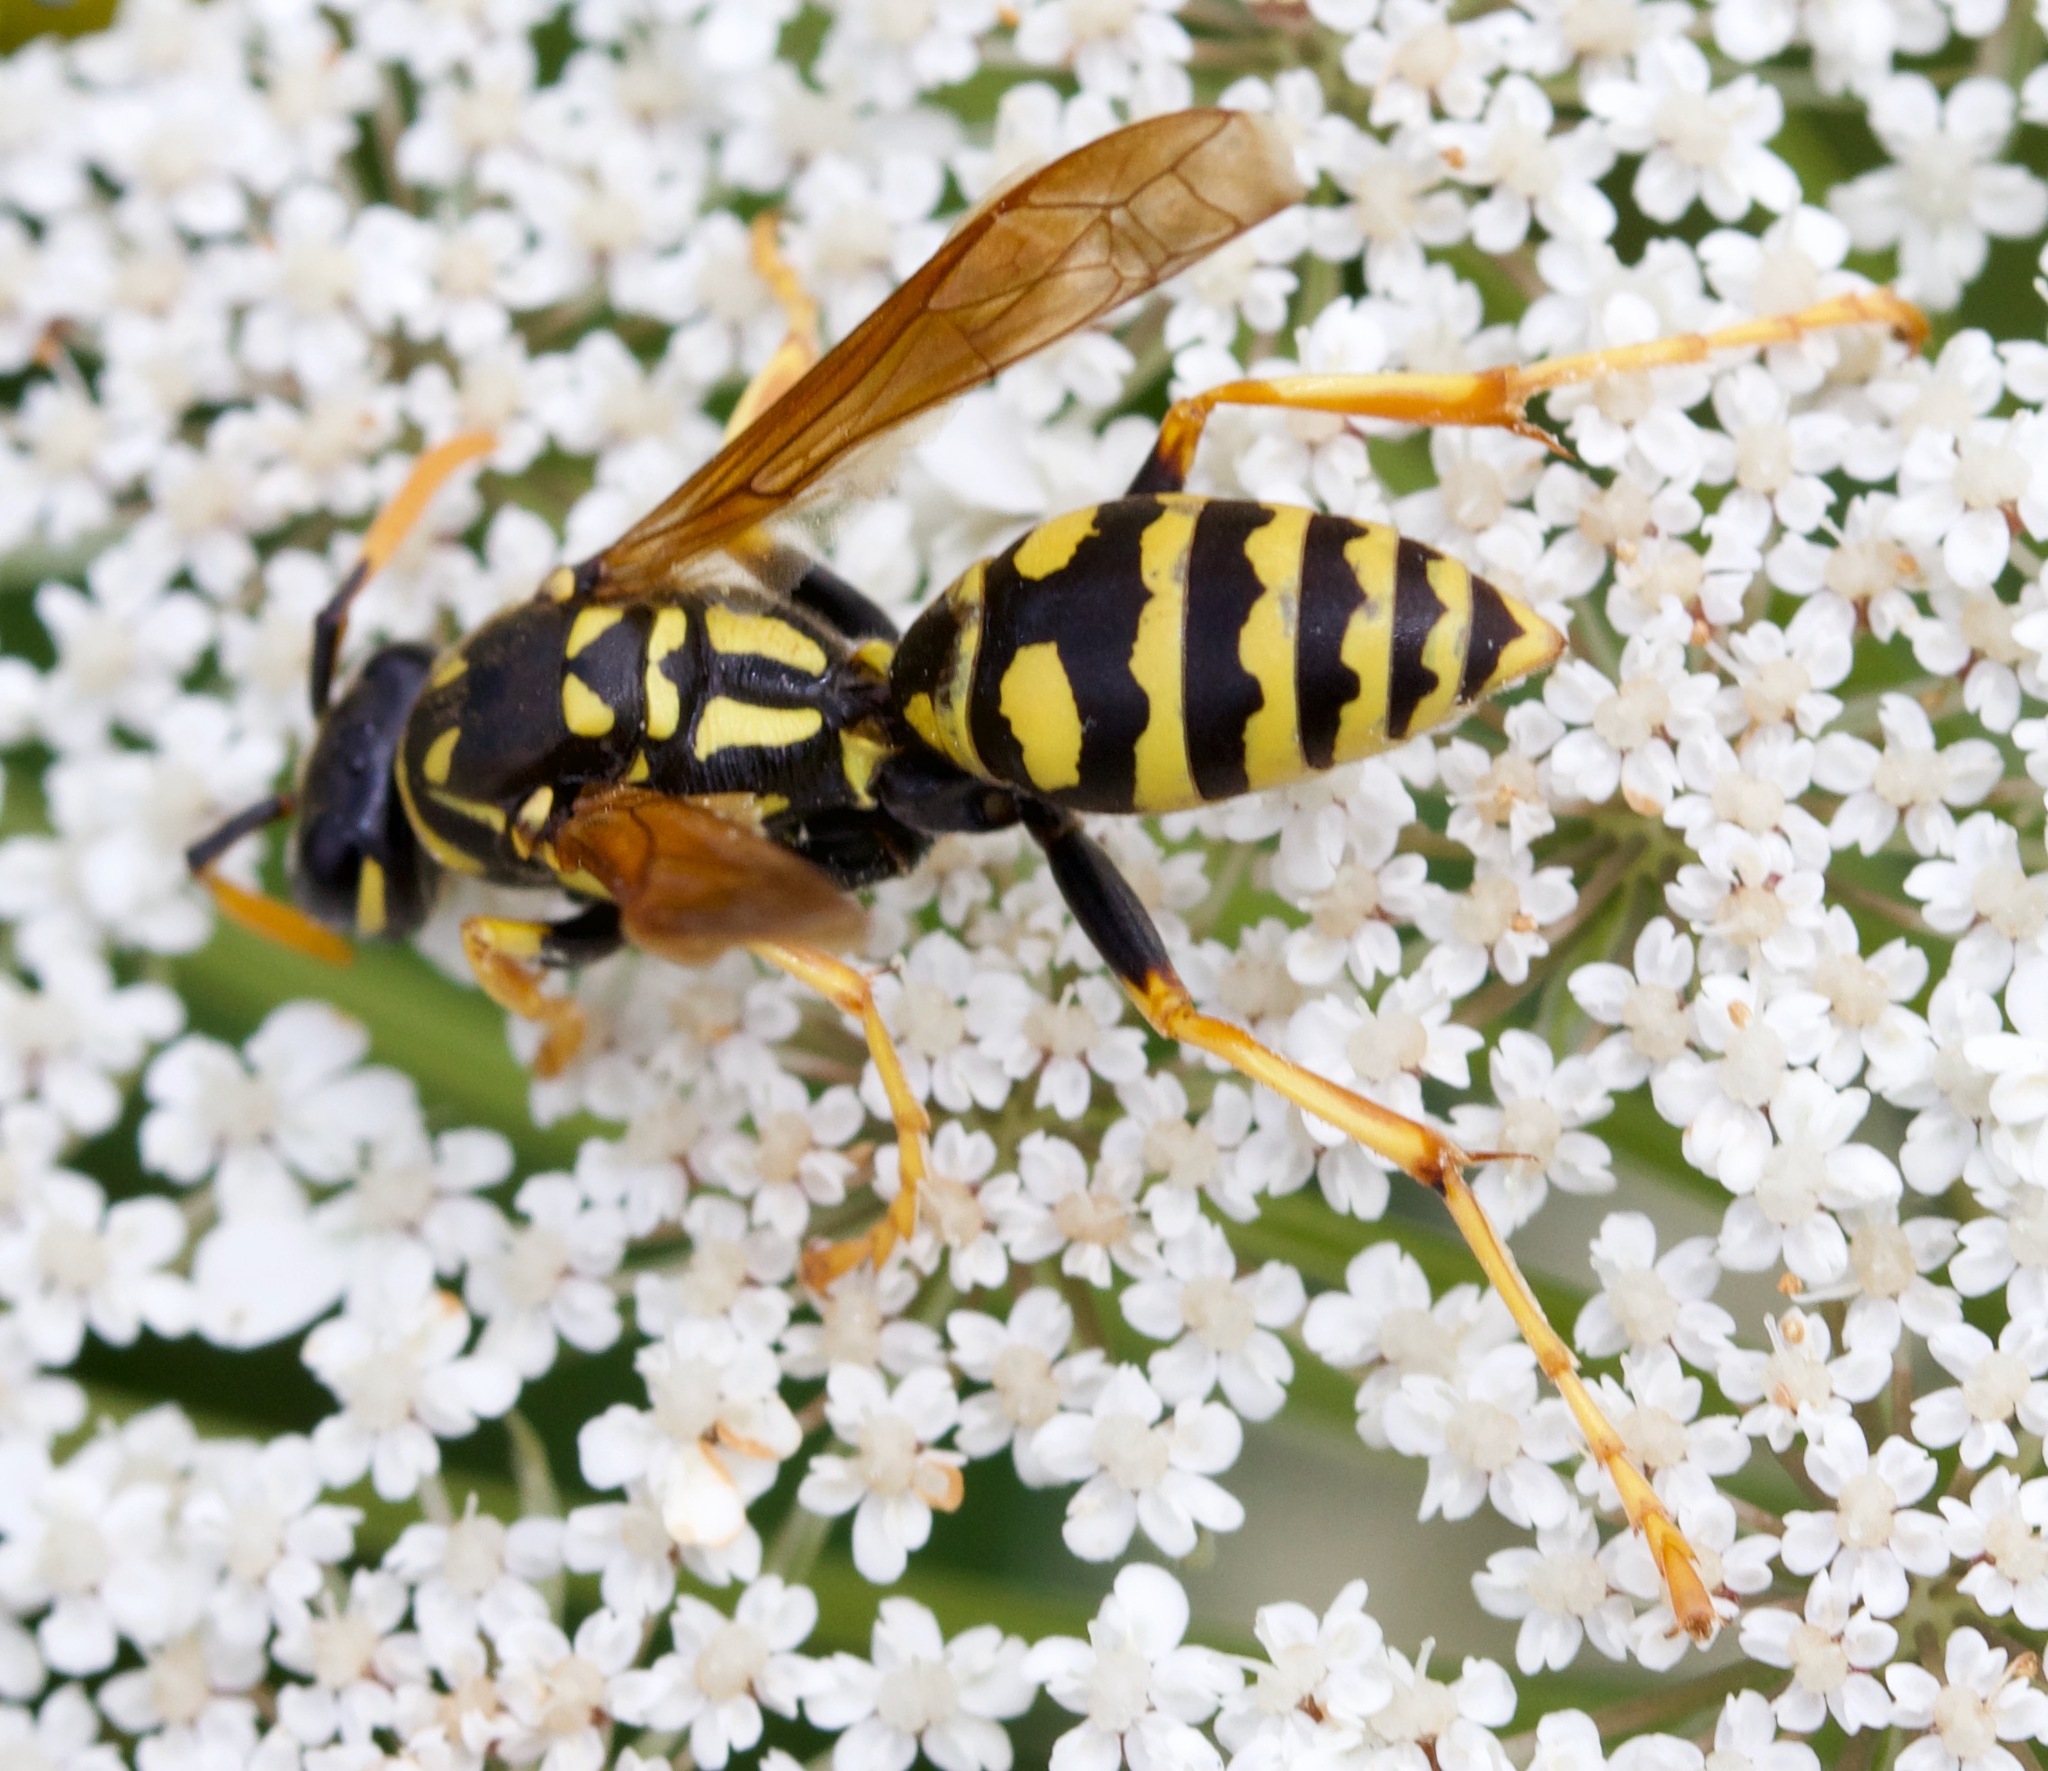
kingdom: Animalia
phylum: Arthropoda
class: Insecta
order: Hymenoptera
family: Eumenidae
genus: Polistes
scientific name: Polistes dominula
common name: Paper wasp
